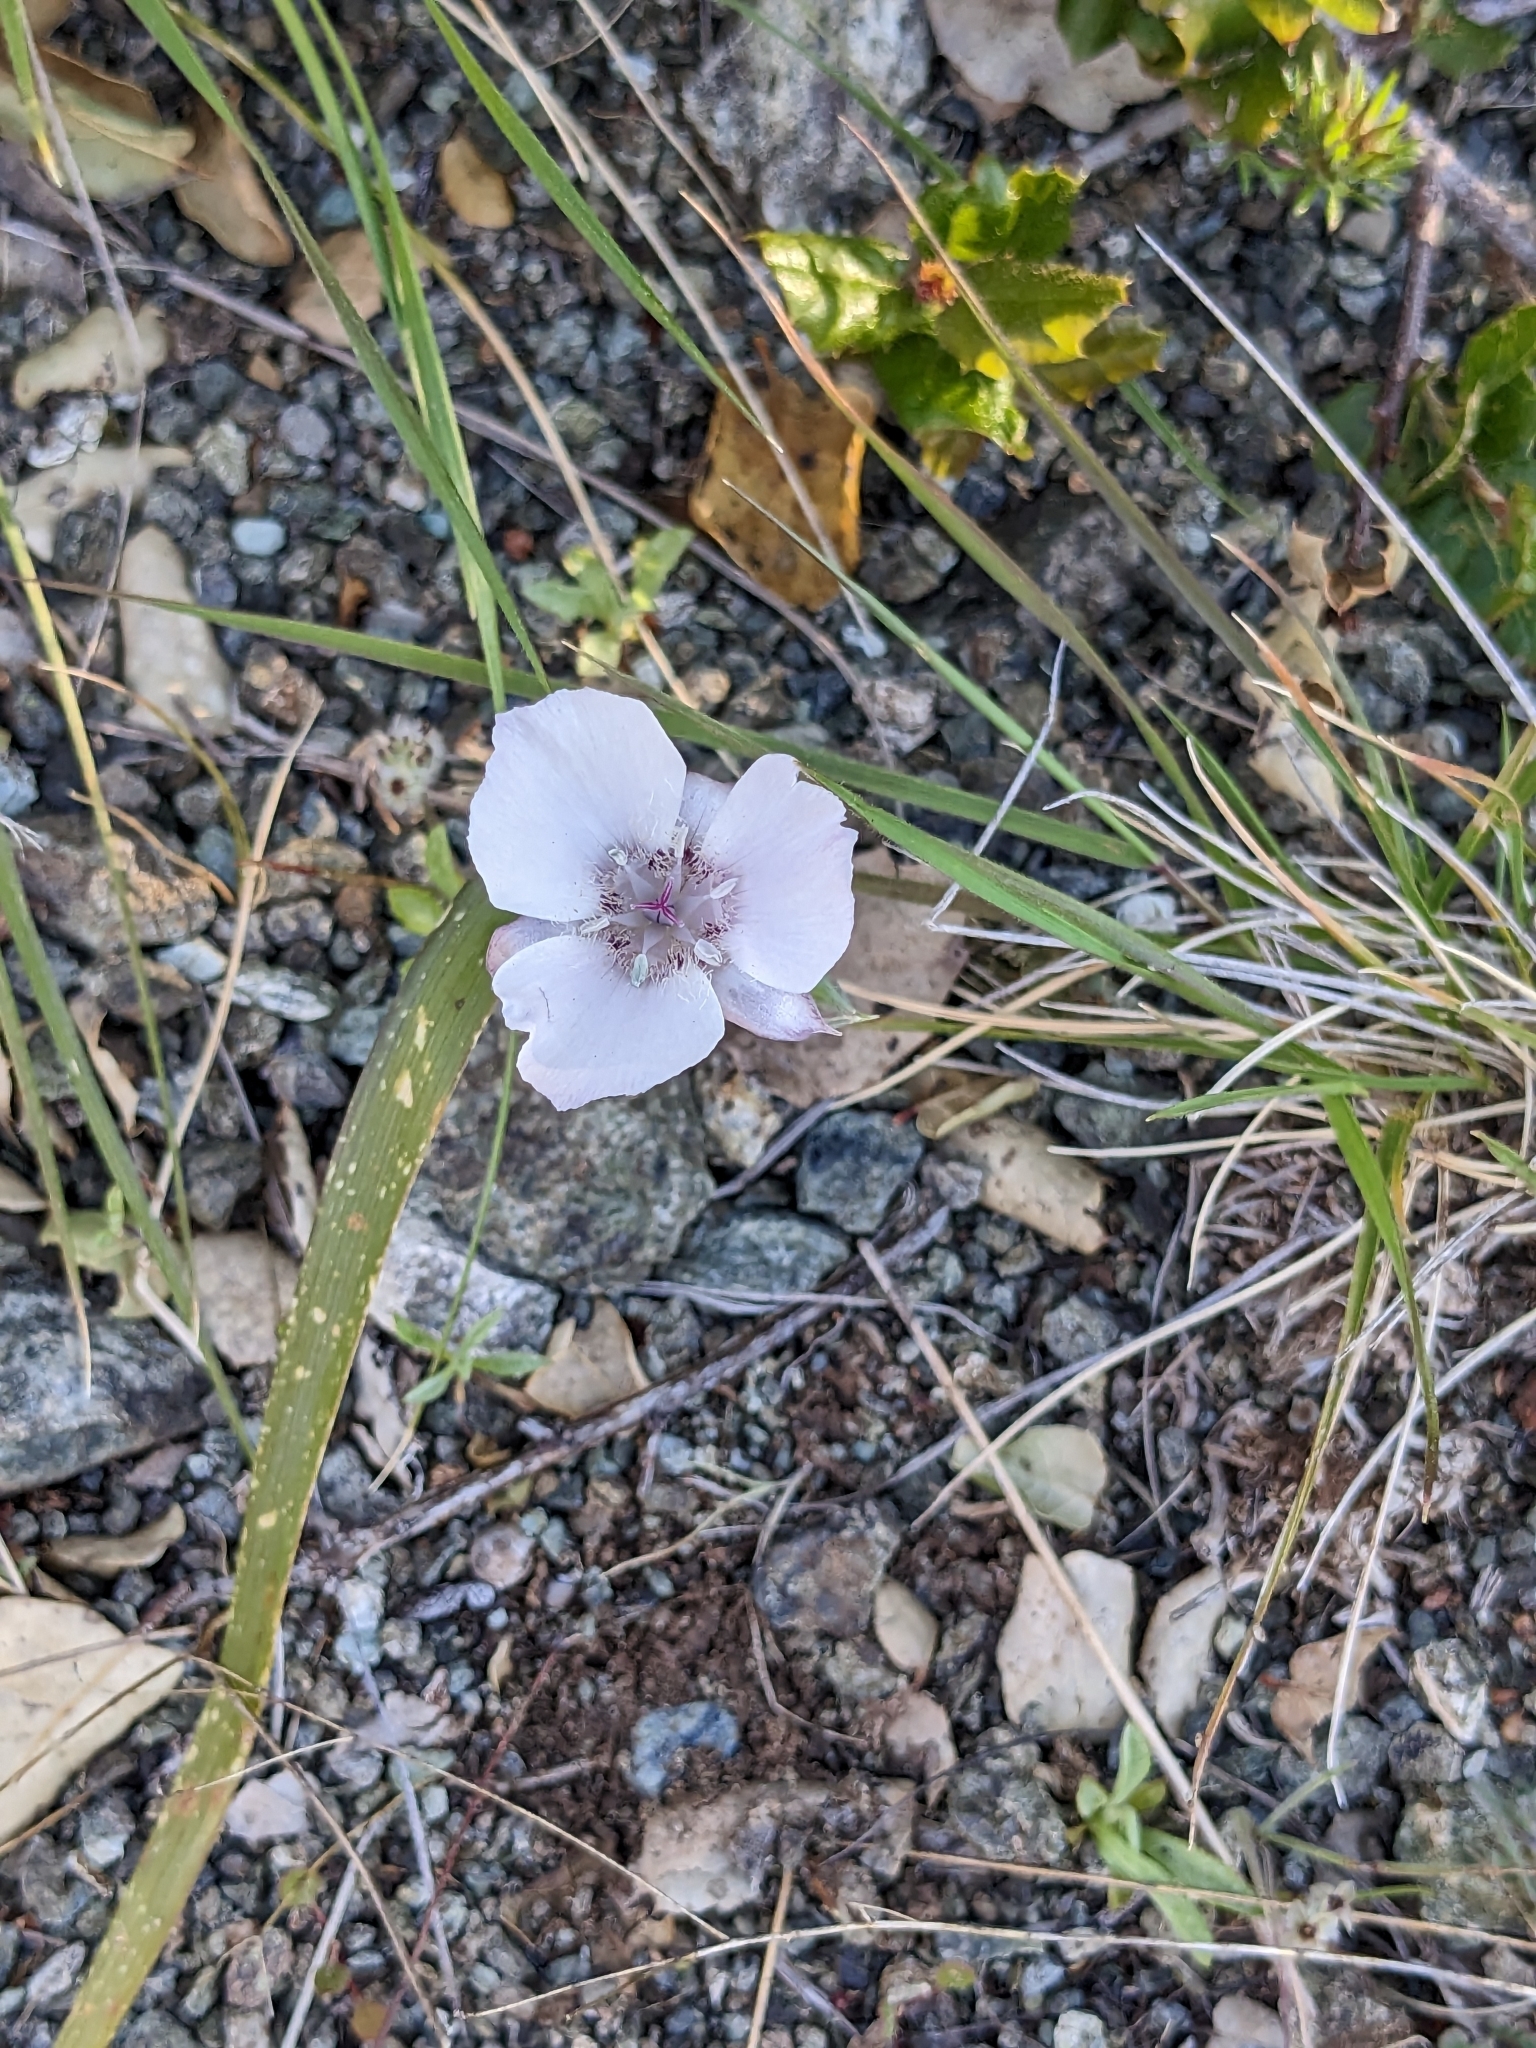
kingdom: Plantae
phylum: Tracheophyta
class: Liliopsida
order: Liliales
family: Liliaceae
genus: Calochortus
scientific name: Calochortus umbellatus
